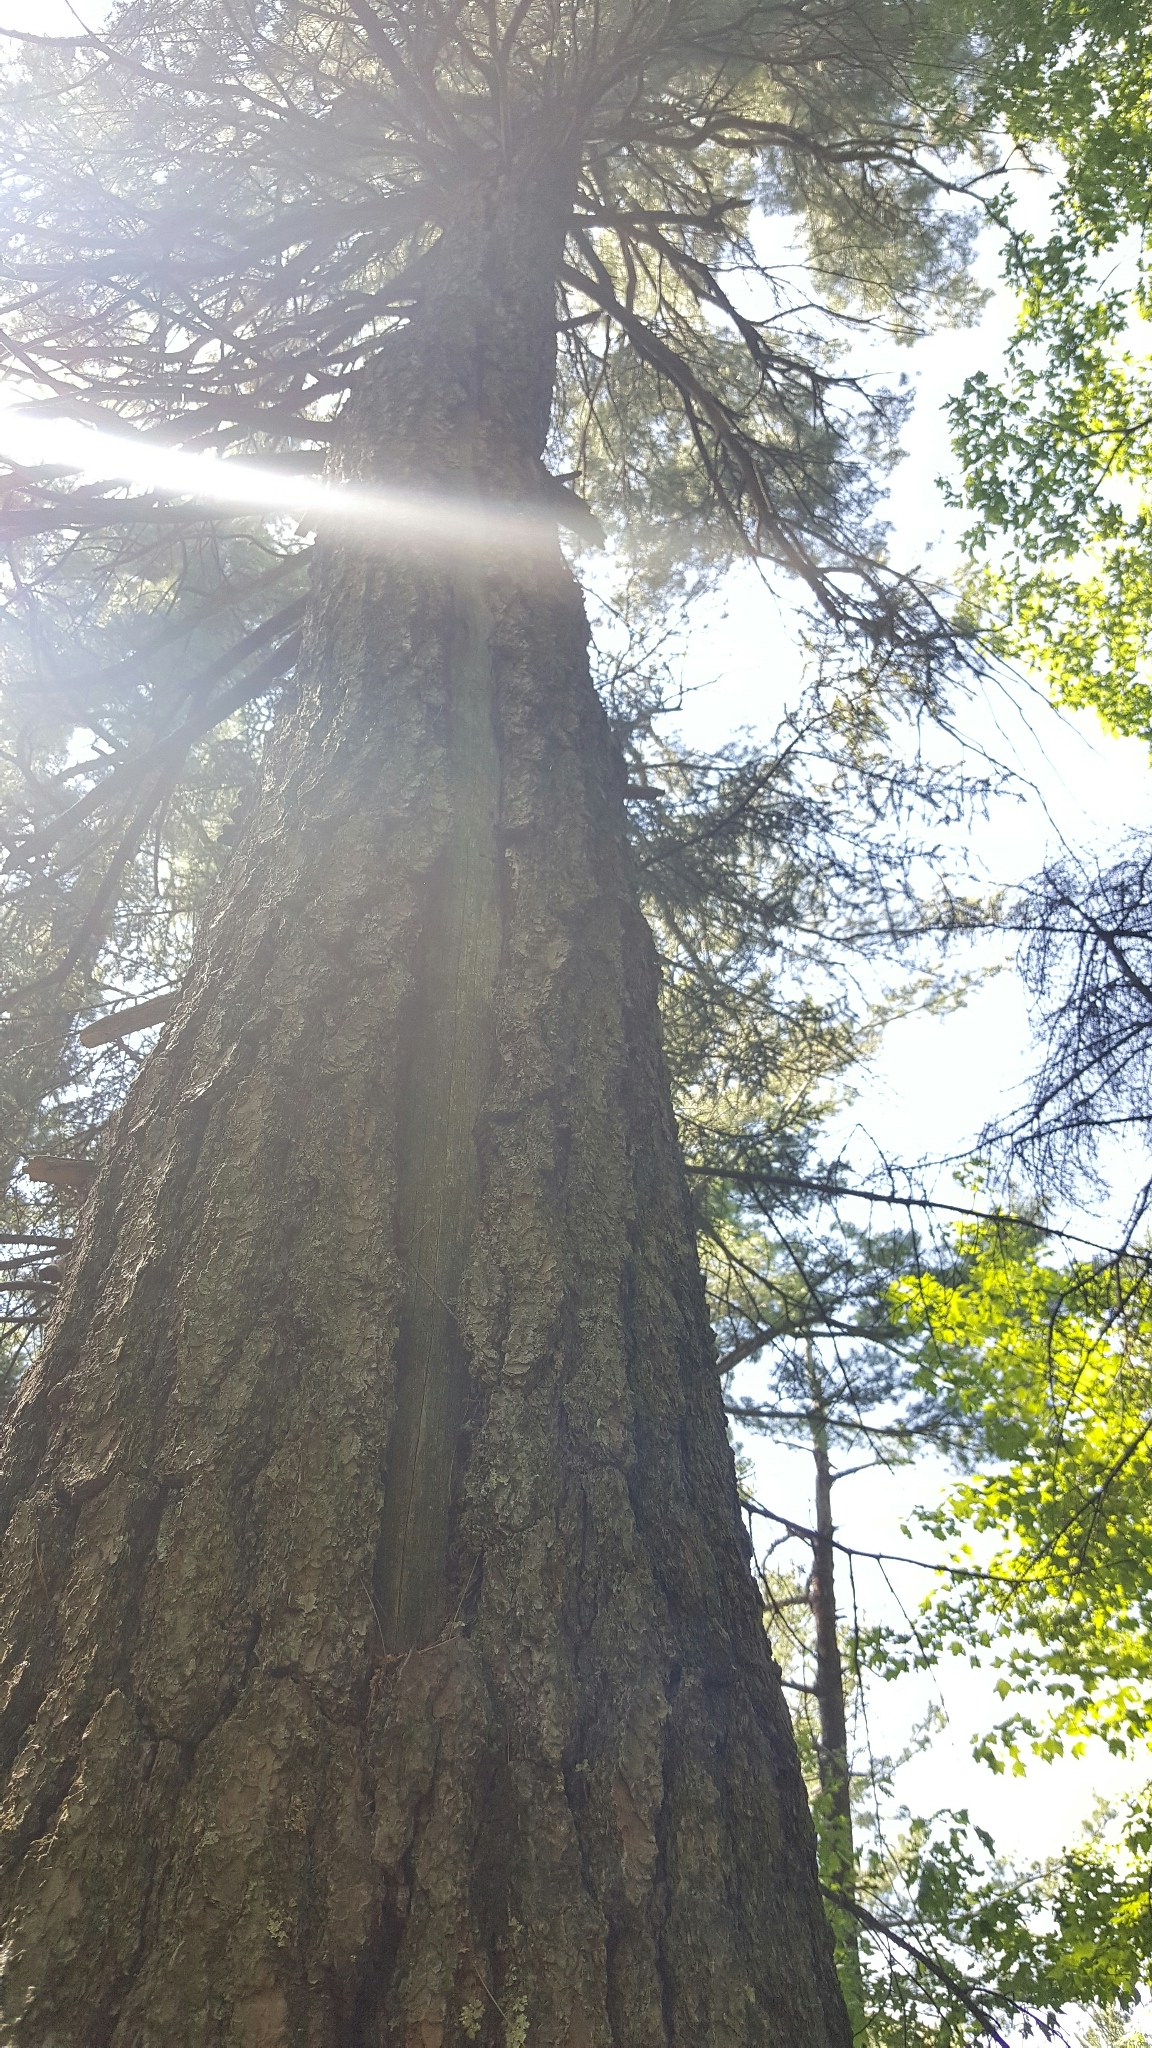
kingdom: Plantae
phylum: Tracheophyta
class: Pinopsida
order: Pinales
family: Pinaceae
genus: Pinus
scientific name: Pinus strobus
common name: Weymouth pine
